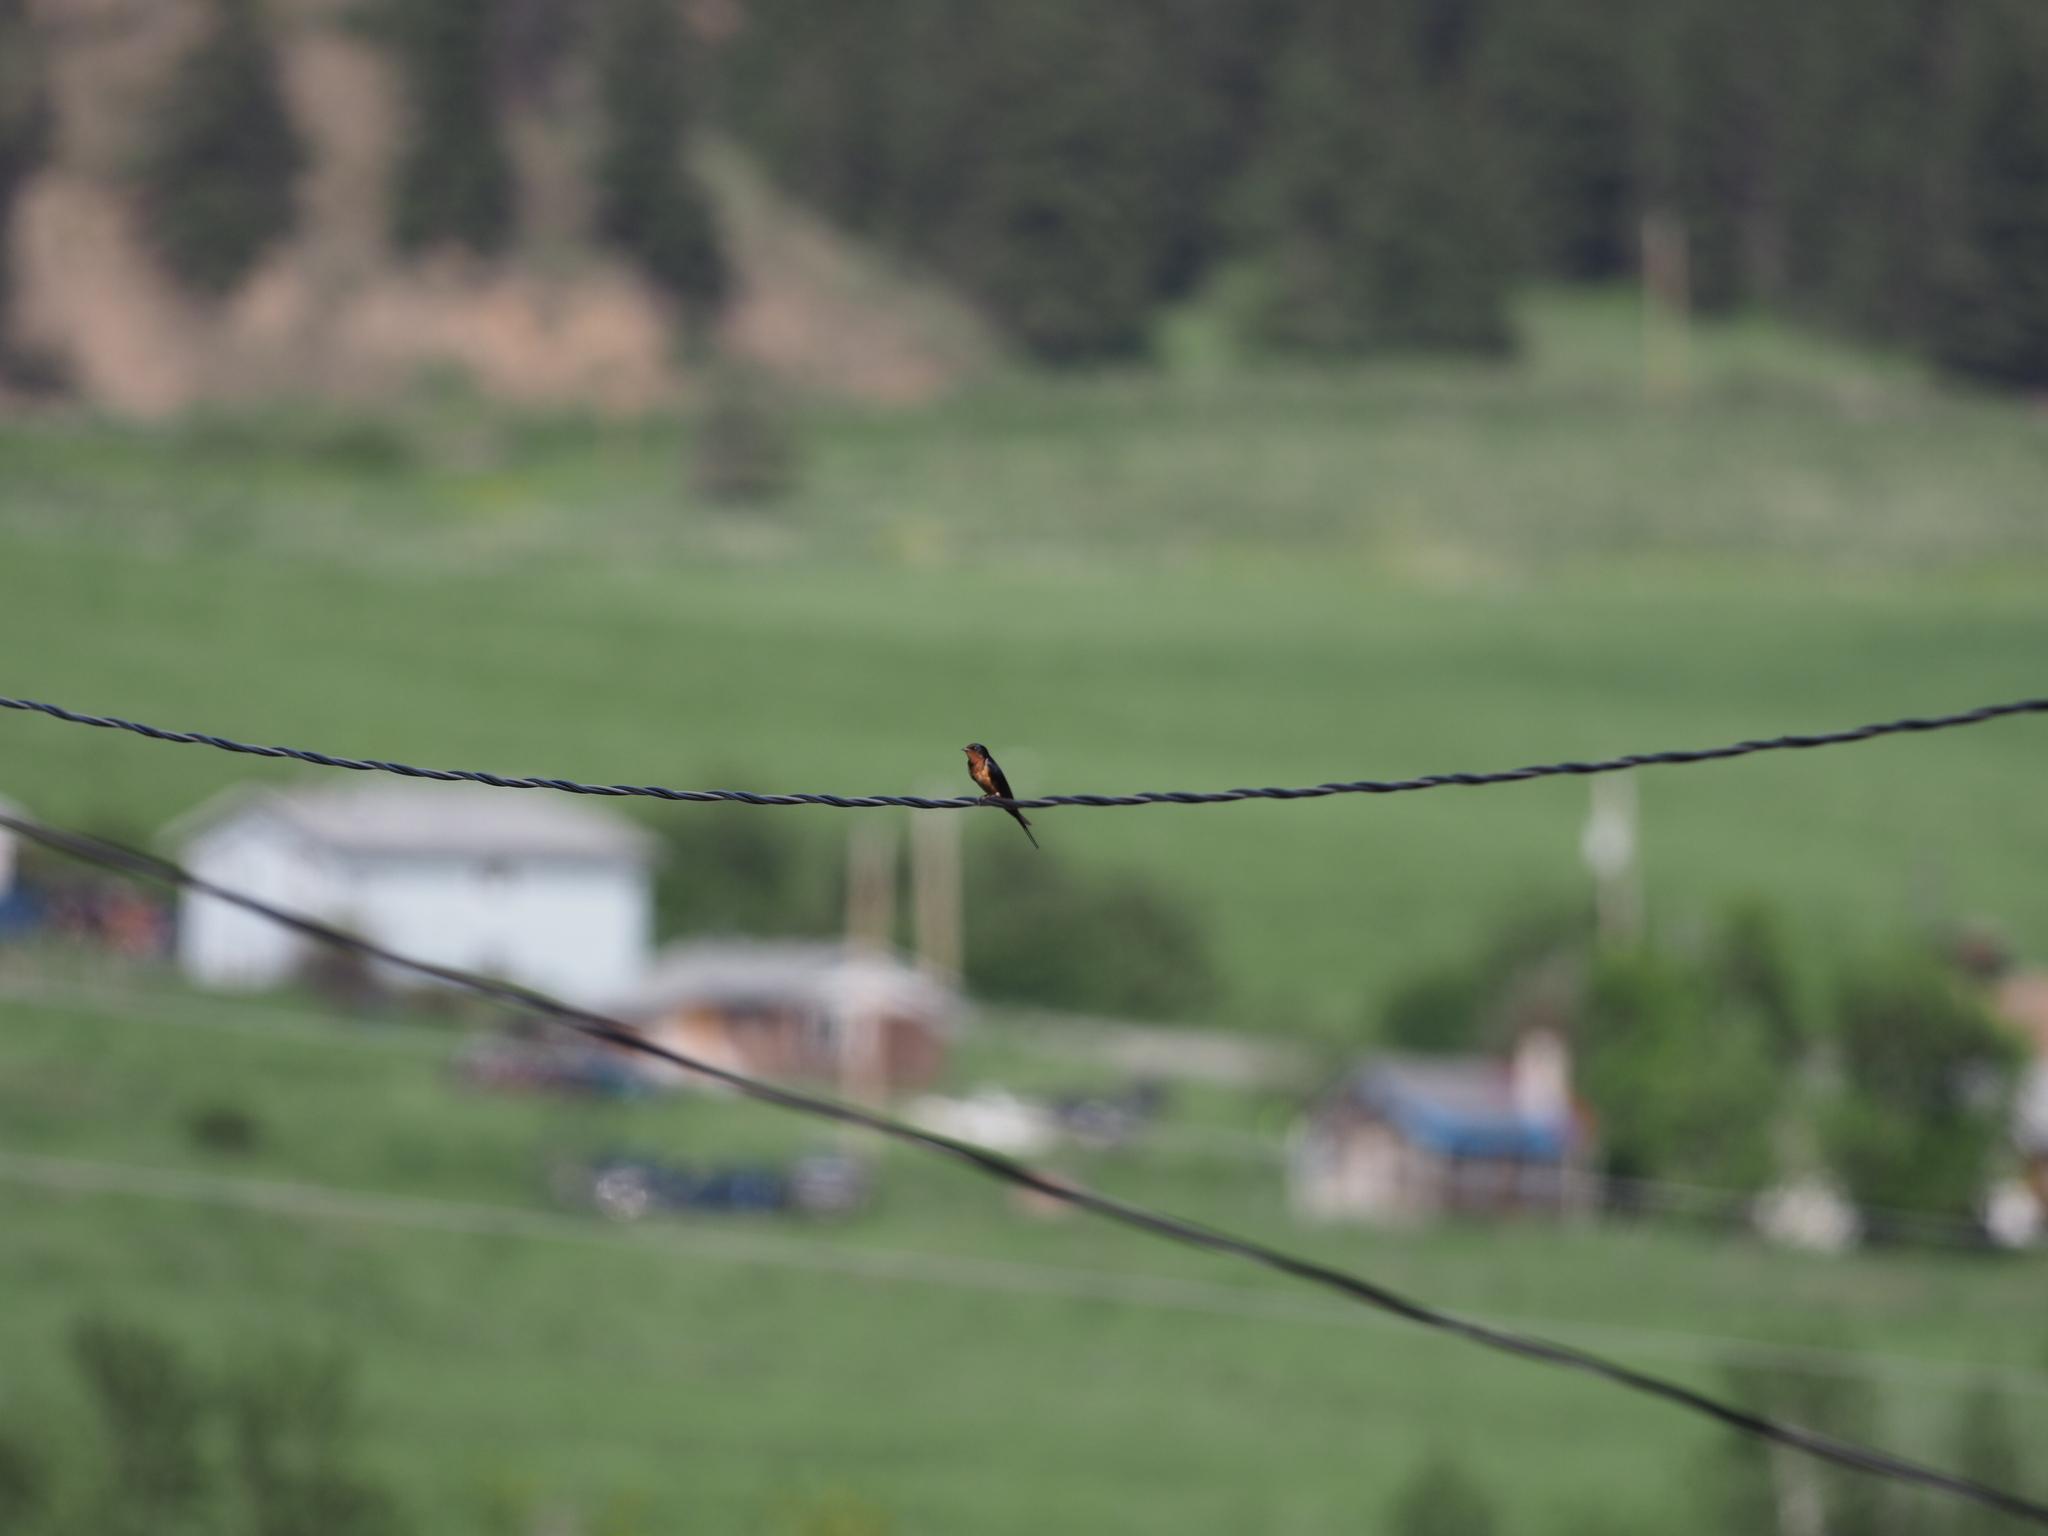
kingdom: Animalia
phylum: Chordata
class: Aves
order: Passeriformes
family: Hirundinidae
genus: Hirundo
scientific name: Hirundo rustica
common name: Barn swallow
